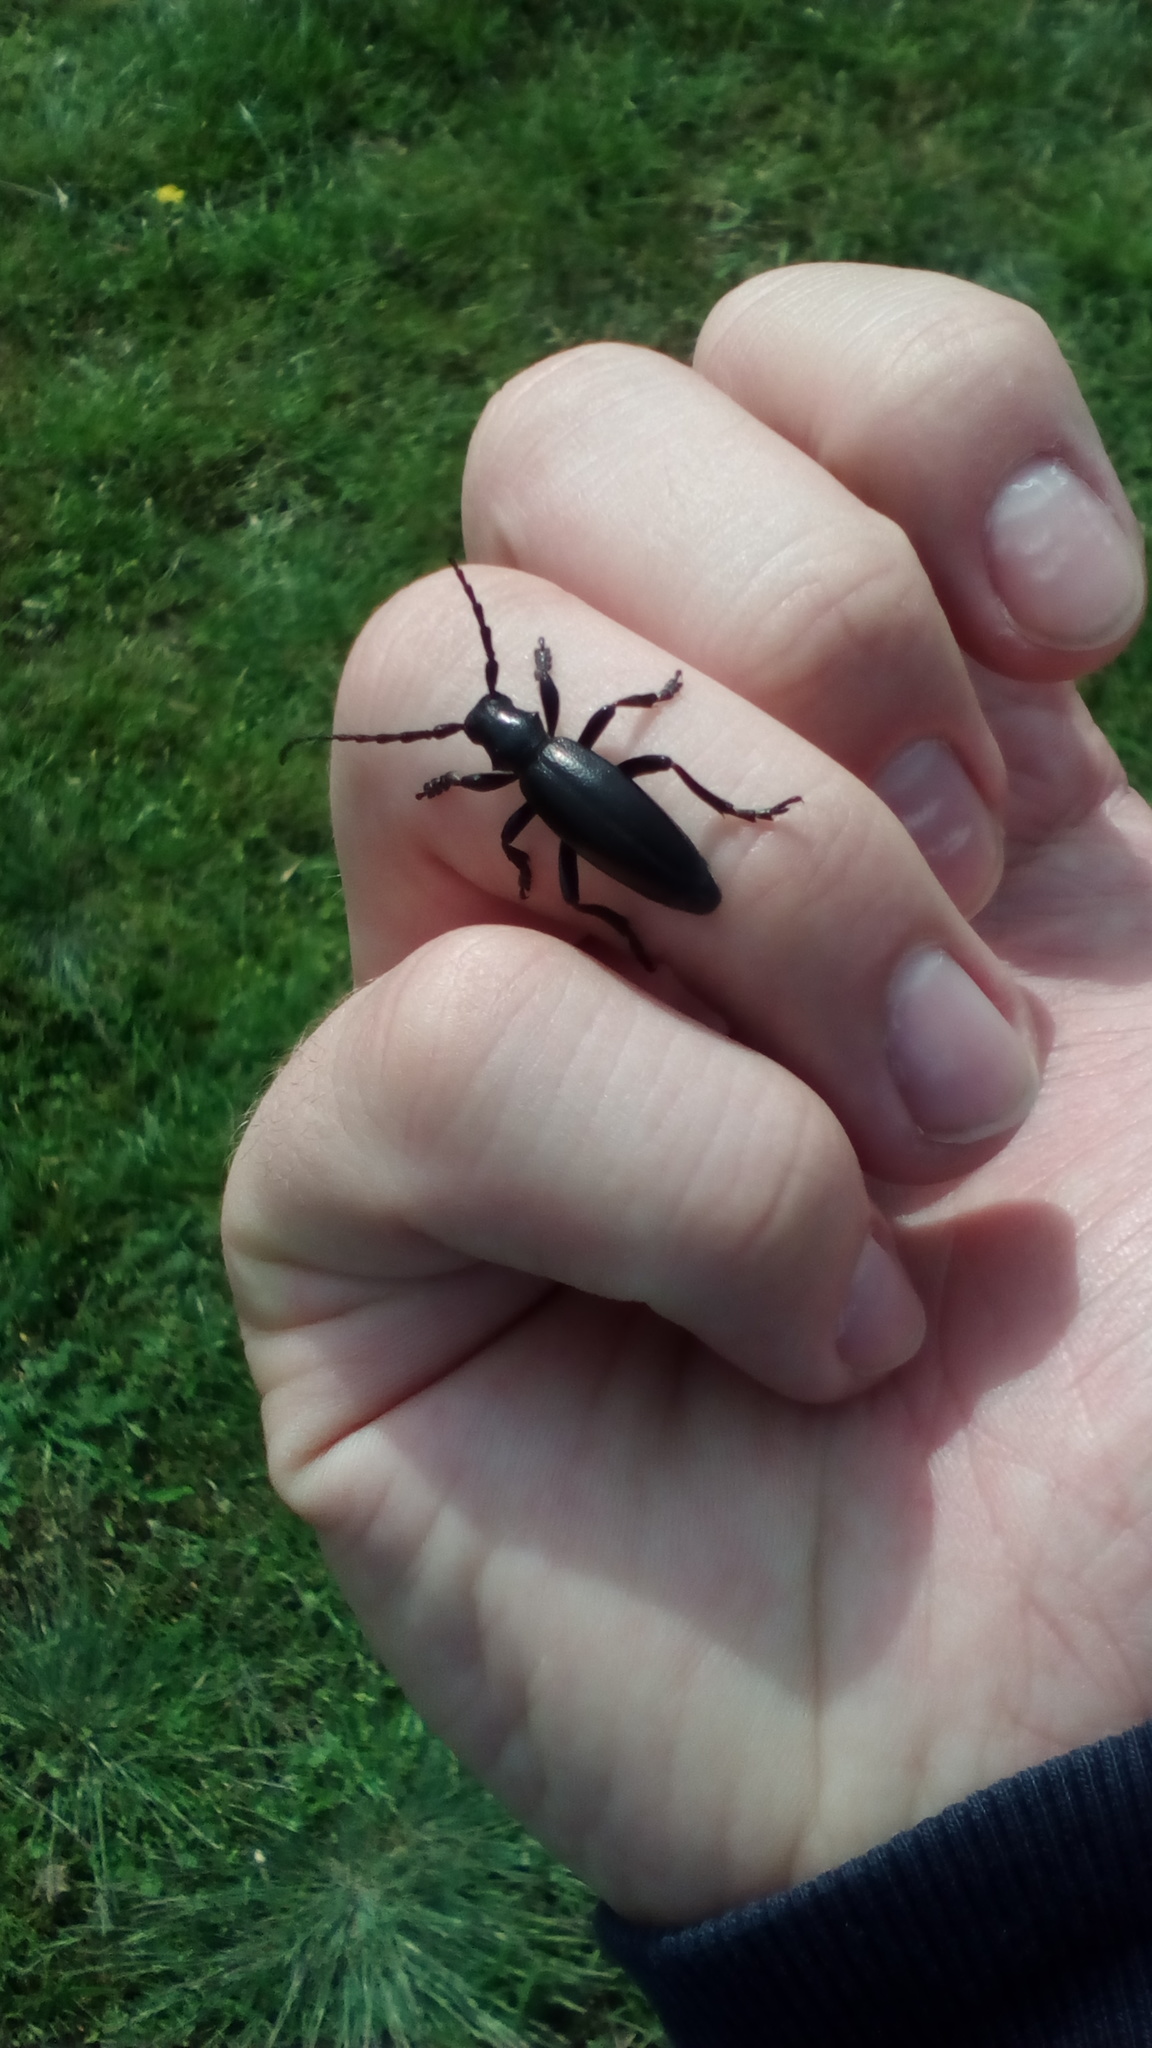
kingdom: Animalia
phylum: Arthropoda
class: Insecta
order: Coleoptera
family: Cerambycidae
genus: Dorcadion
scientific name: Dorcadion aethiops
